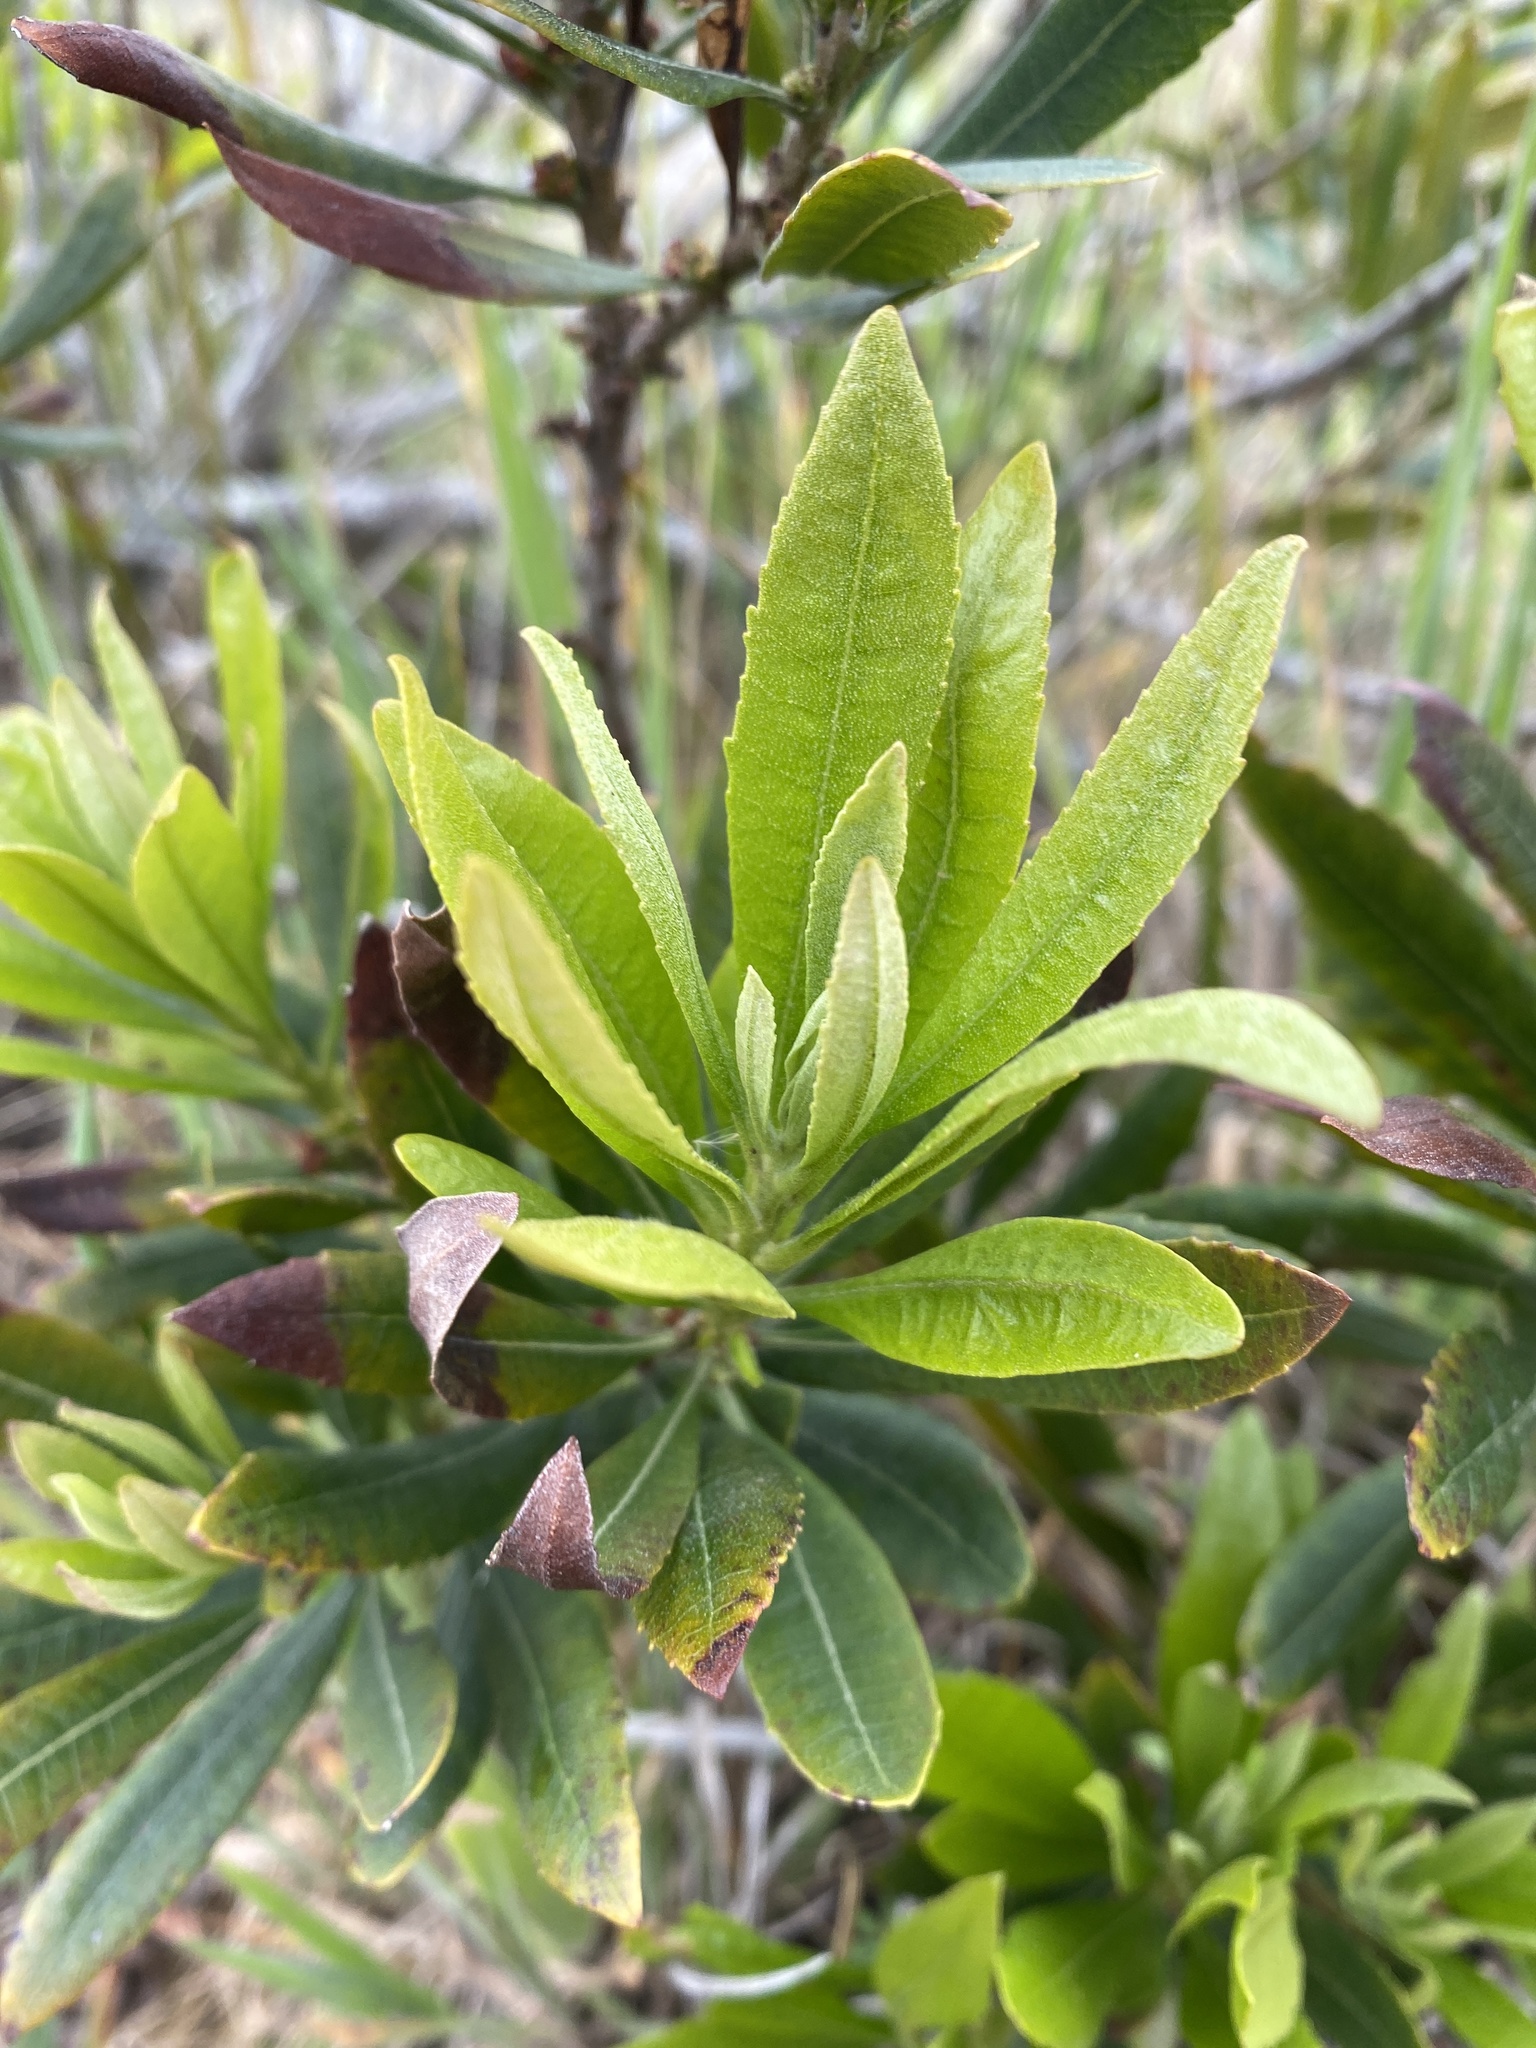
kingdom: Plantae
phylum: Tracheophyta
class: Magnoliopsida
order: Fagales
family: Myricaceae
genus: Morella
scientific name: Morella californica
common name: California wax-myrtle
